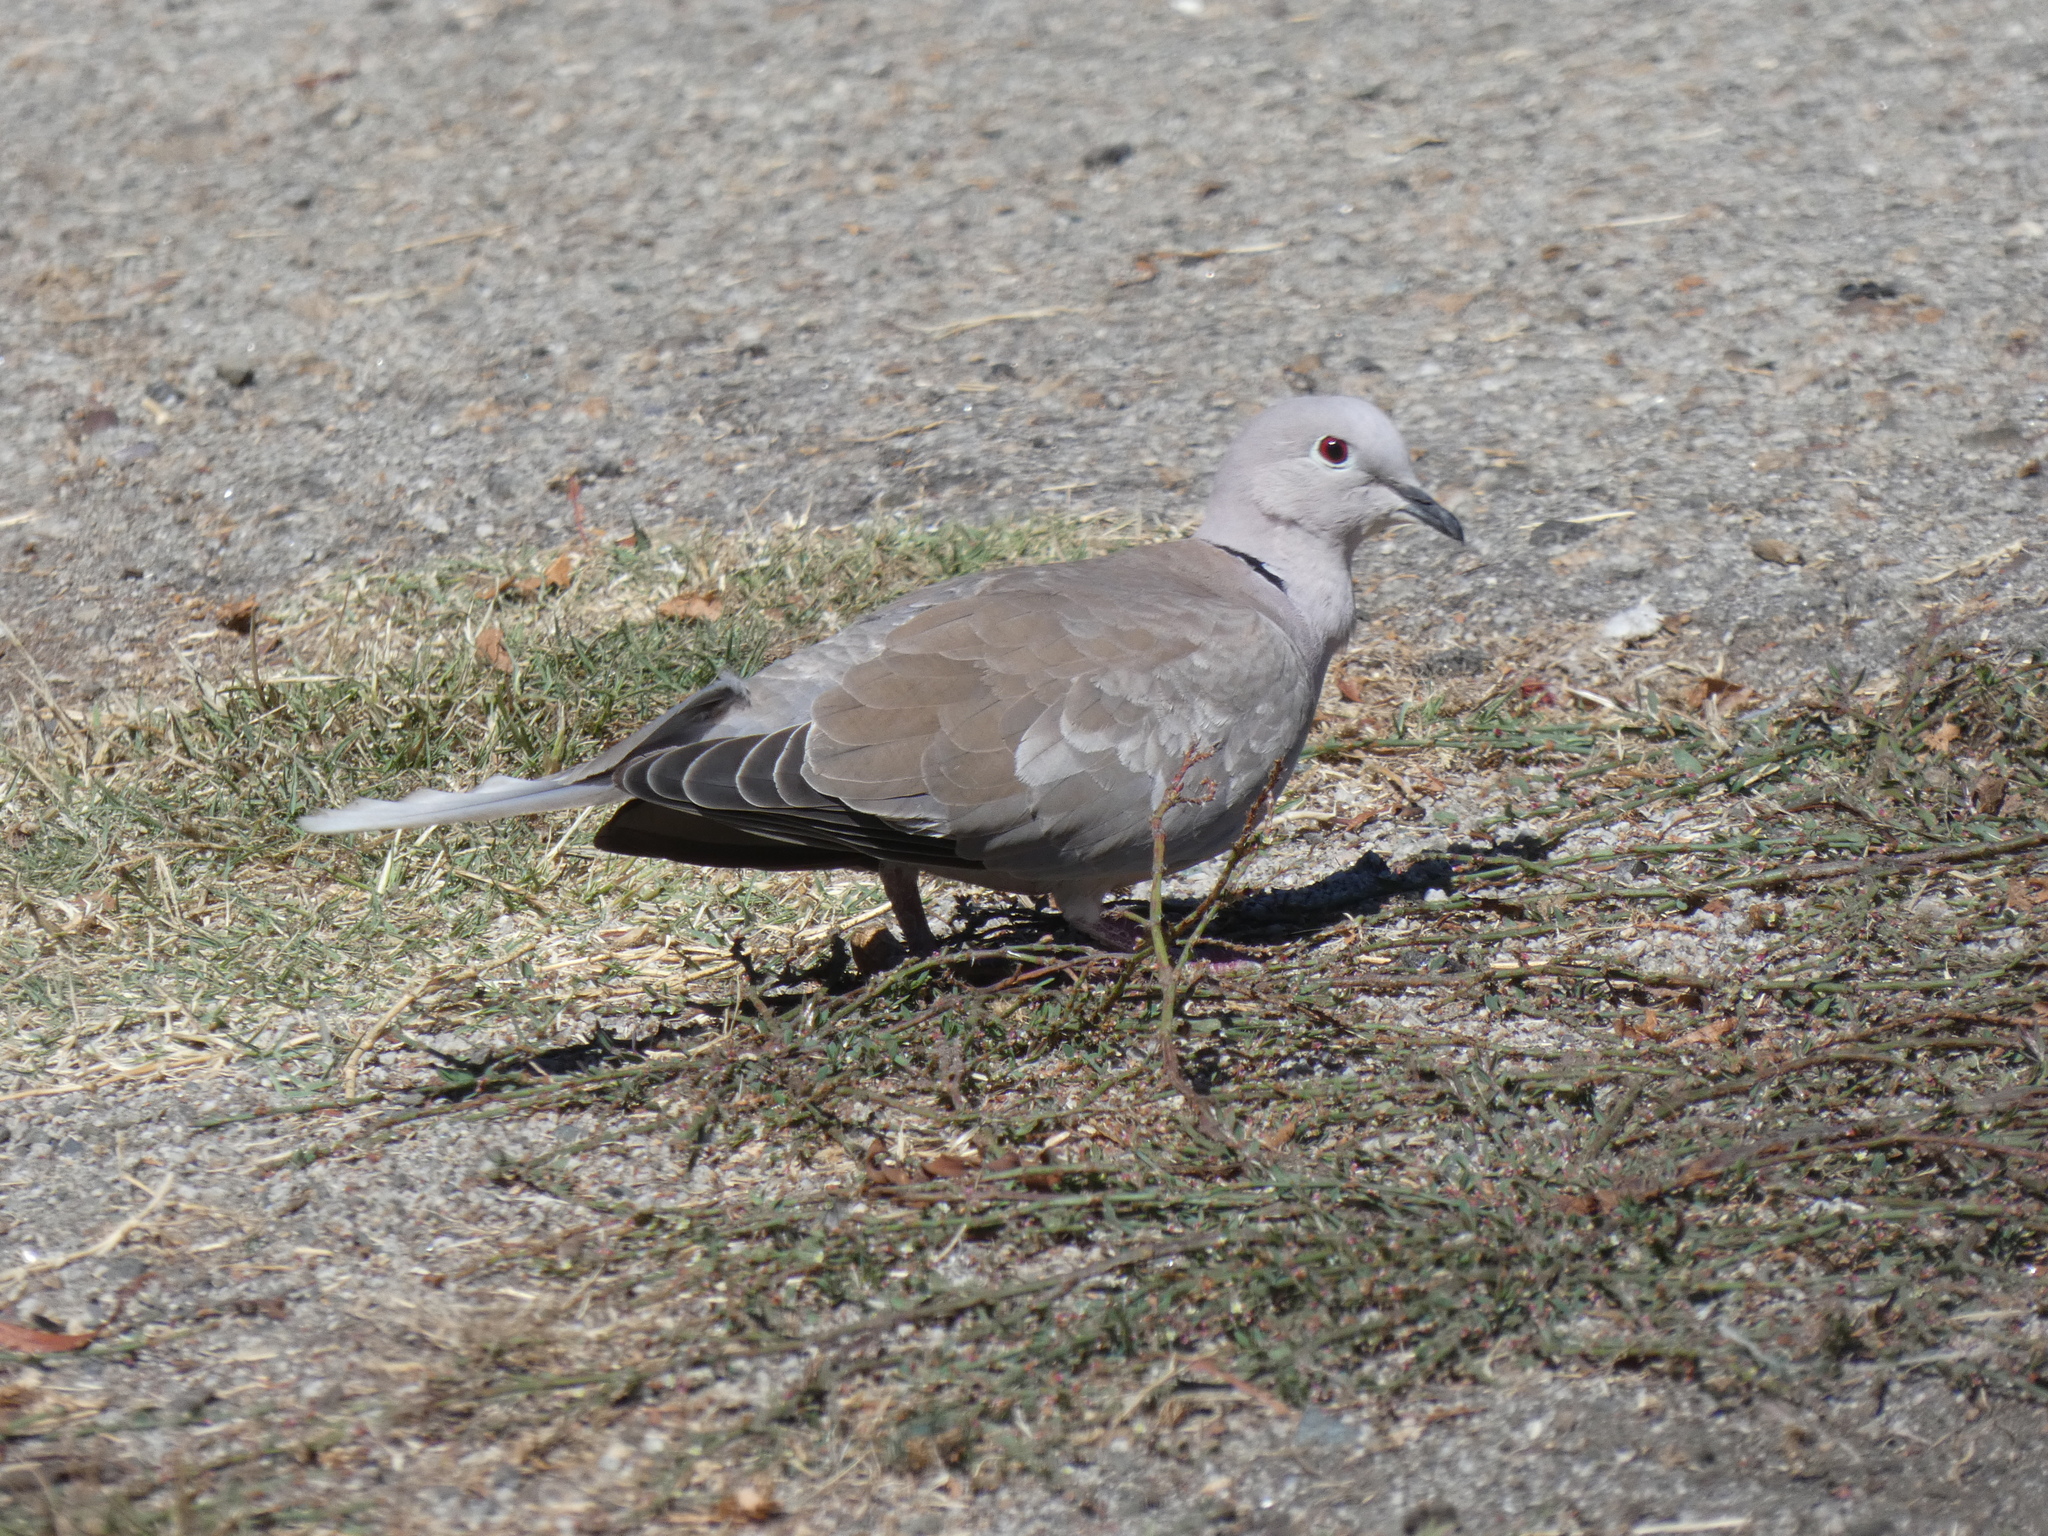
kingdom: Animalia
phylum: Chordata
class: Aves
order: Columbiformes
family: Columbidae
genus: Streptopelia
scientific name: Streptopelia decaocto
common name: Eurasian collared dove
